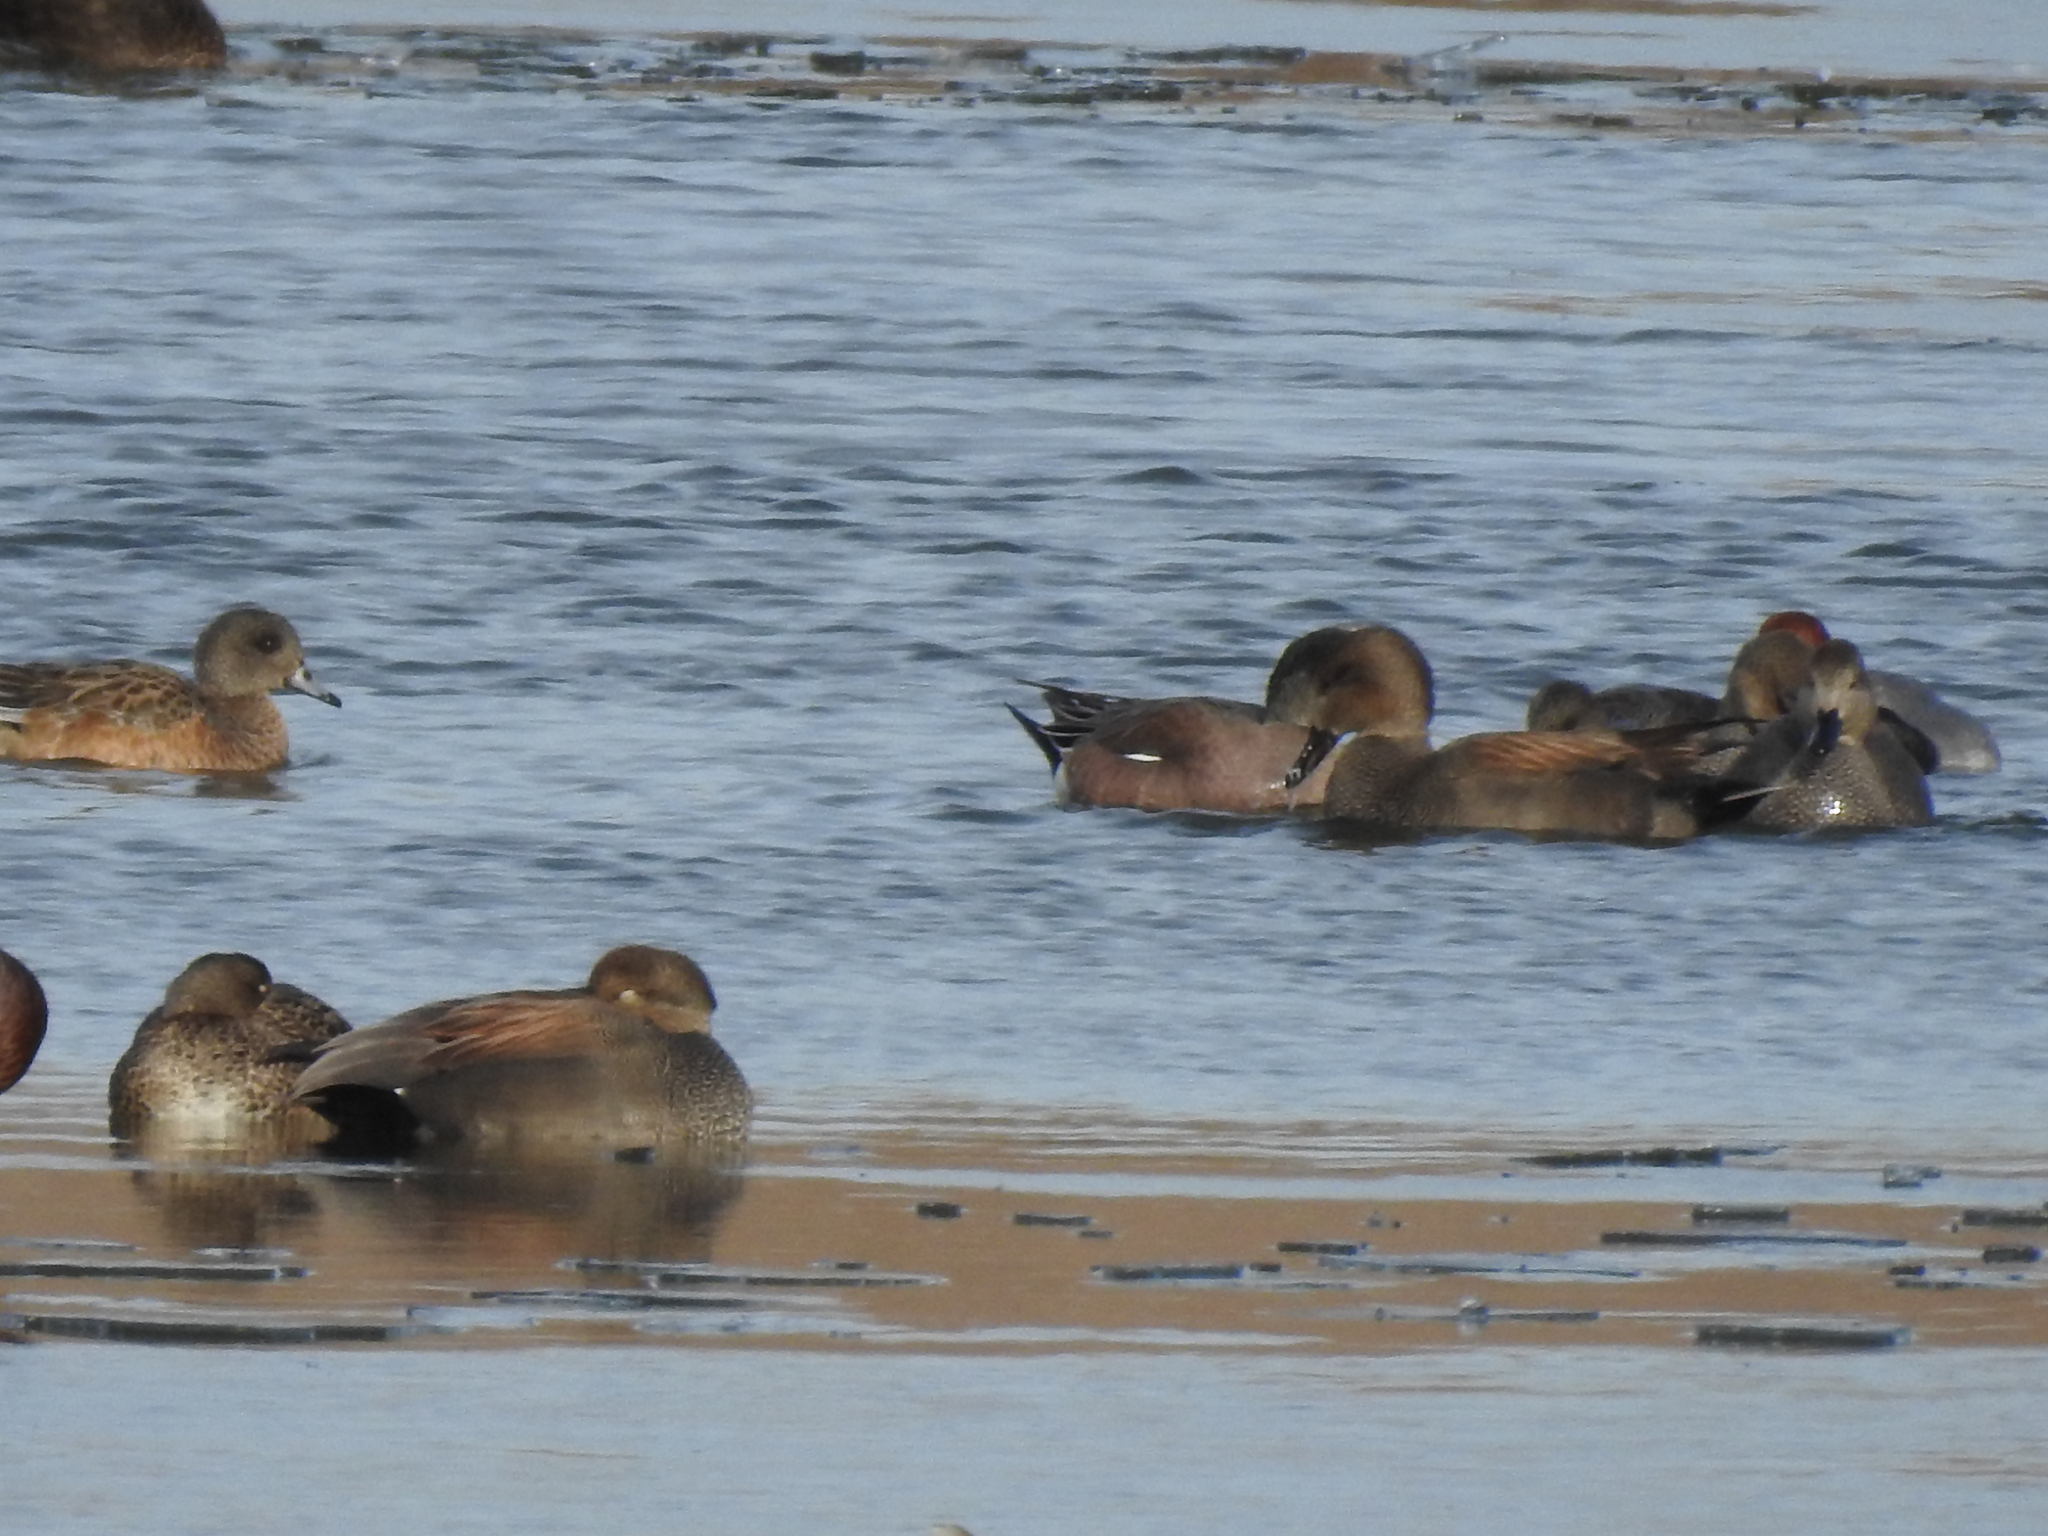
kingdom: Animalia
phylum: Chordata
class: Aves
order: Anseriformes
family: Anatidae
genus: Mareca
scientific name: Mareca strepera
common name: Gadwall
